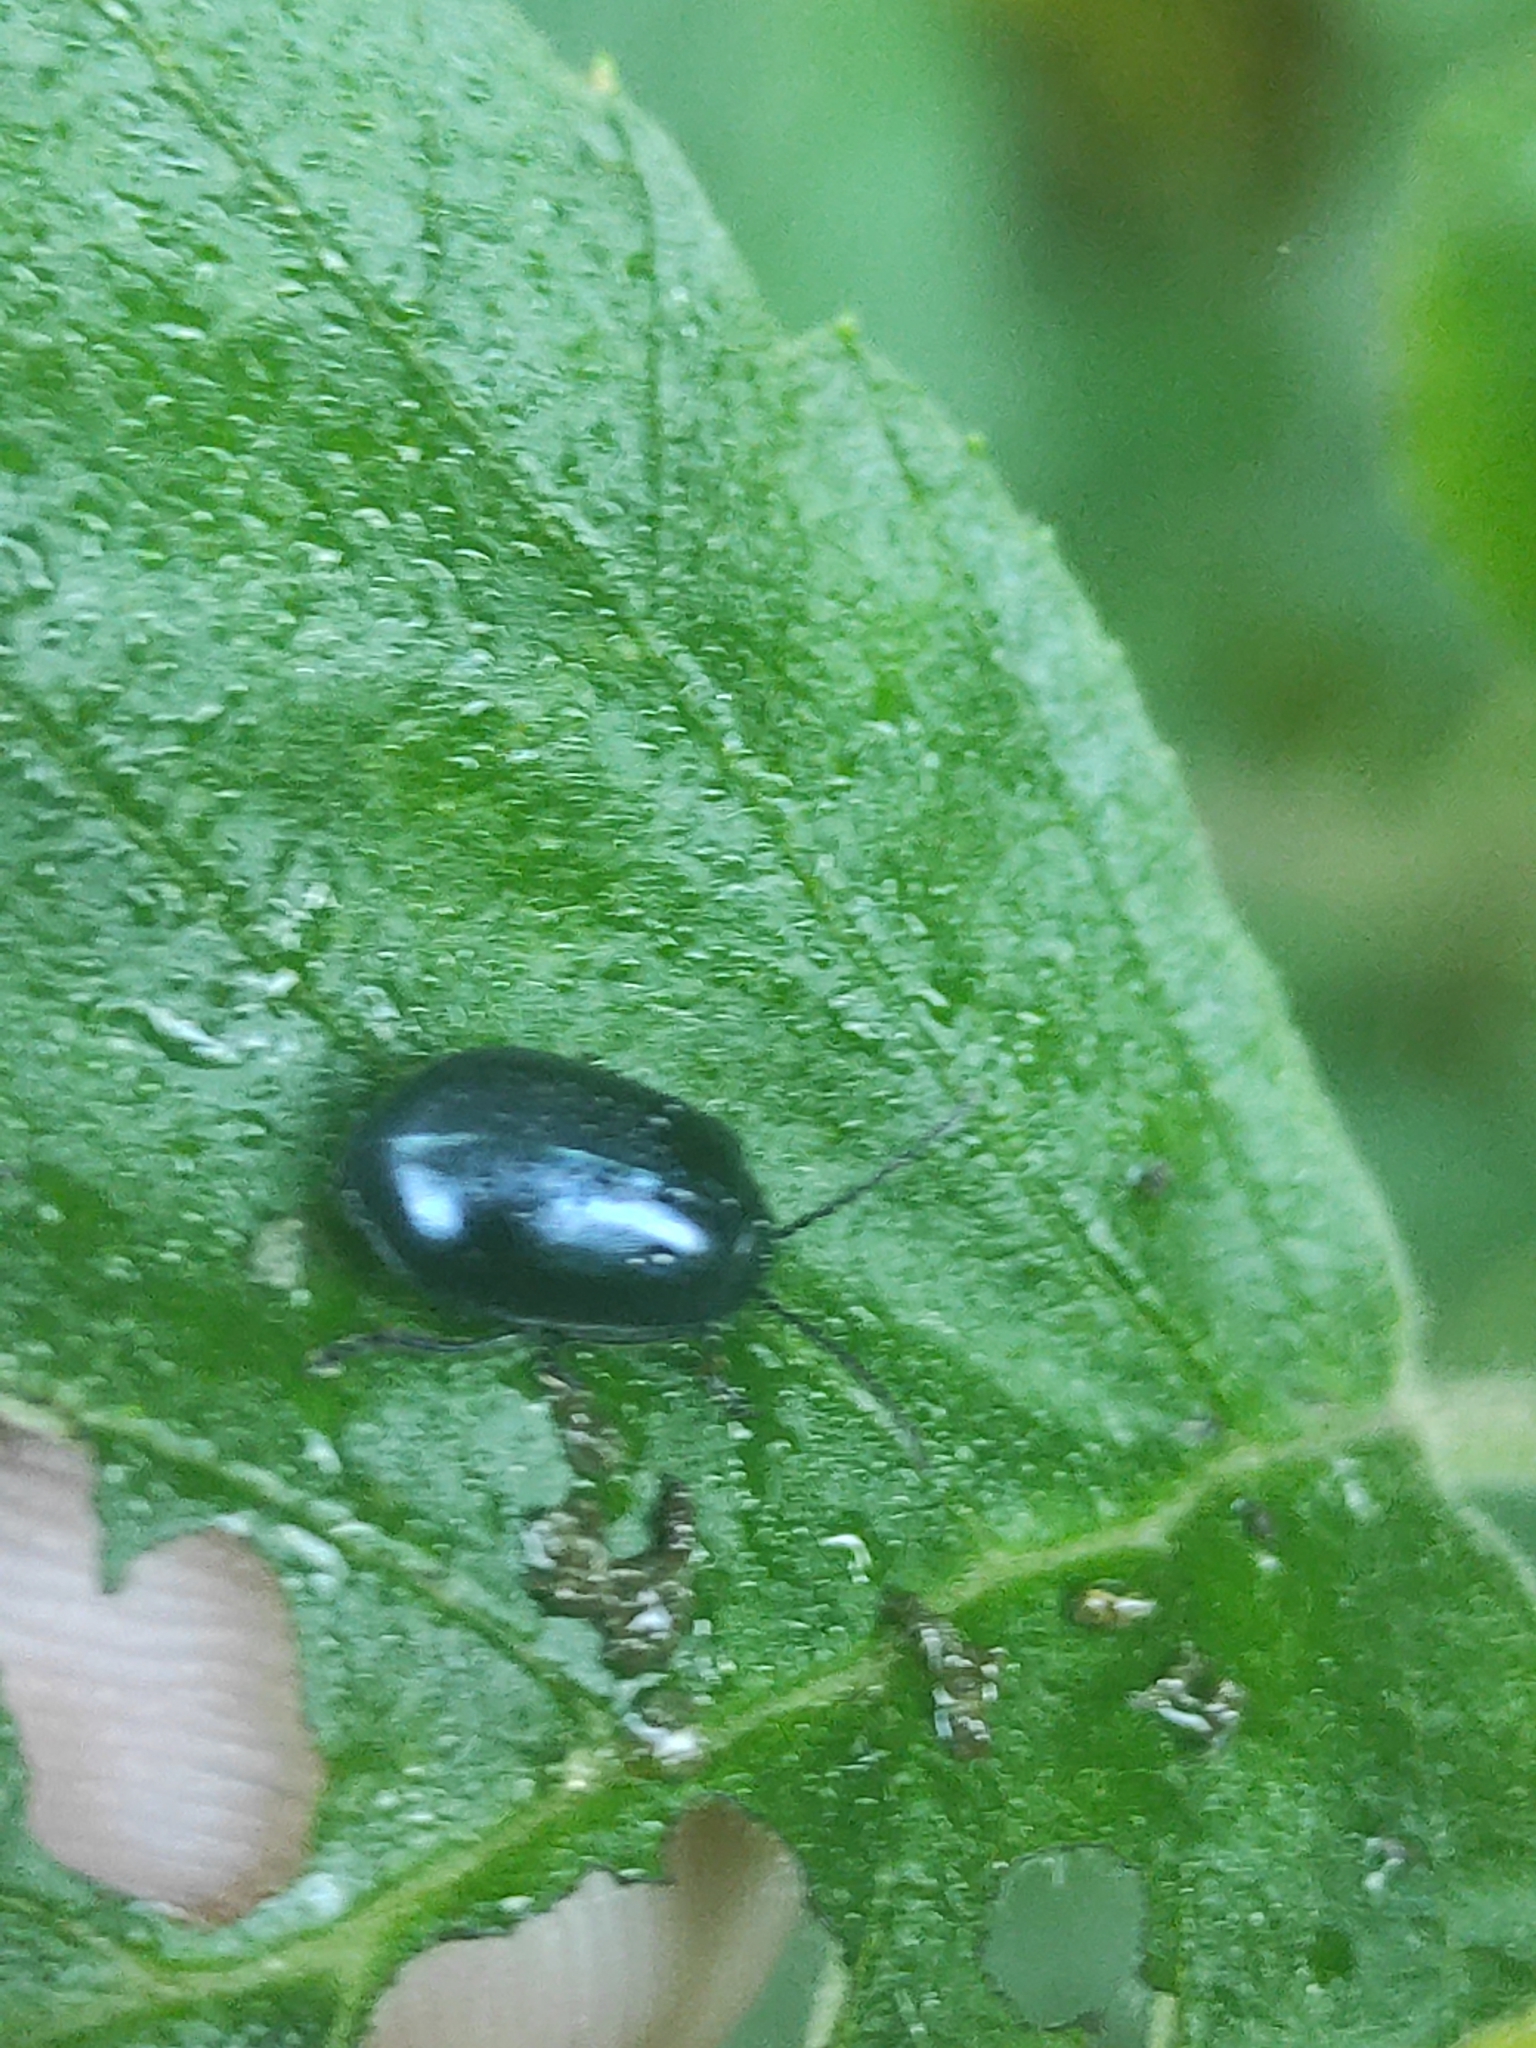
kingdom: Animalia
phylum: Arthropoda
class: Insecta
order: Coleoptera
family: Chrysomelidae
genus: Agelastica
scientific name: Agelastica alni
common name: Alder leaf beetle
